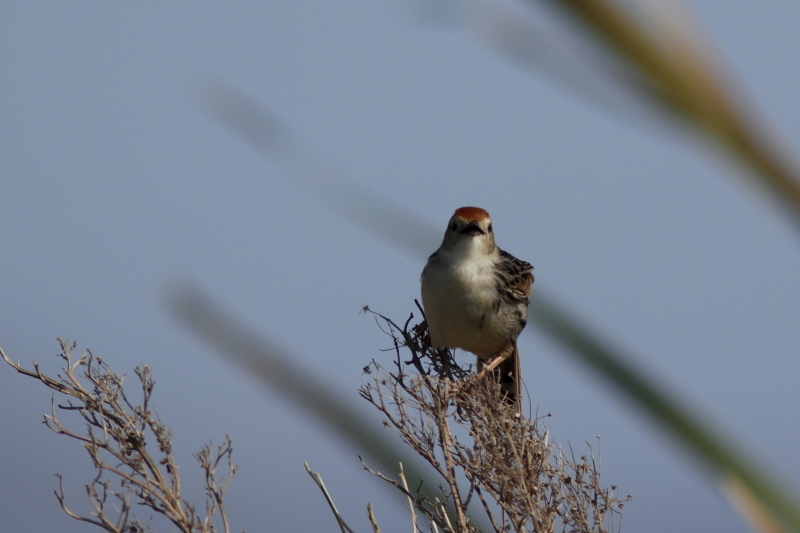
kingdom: Animalia
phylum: Chordata
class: Aves
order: Passeriformes
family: Cisticolidae
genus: Cisticola
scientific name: Cisticola tinniens
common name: Levaillant's cisticola
